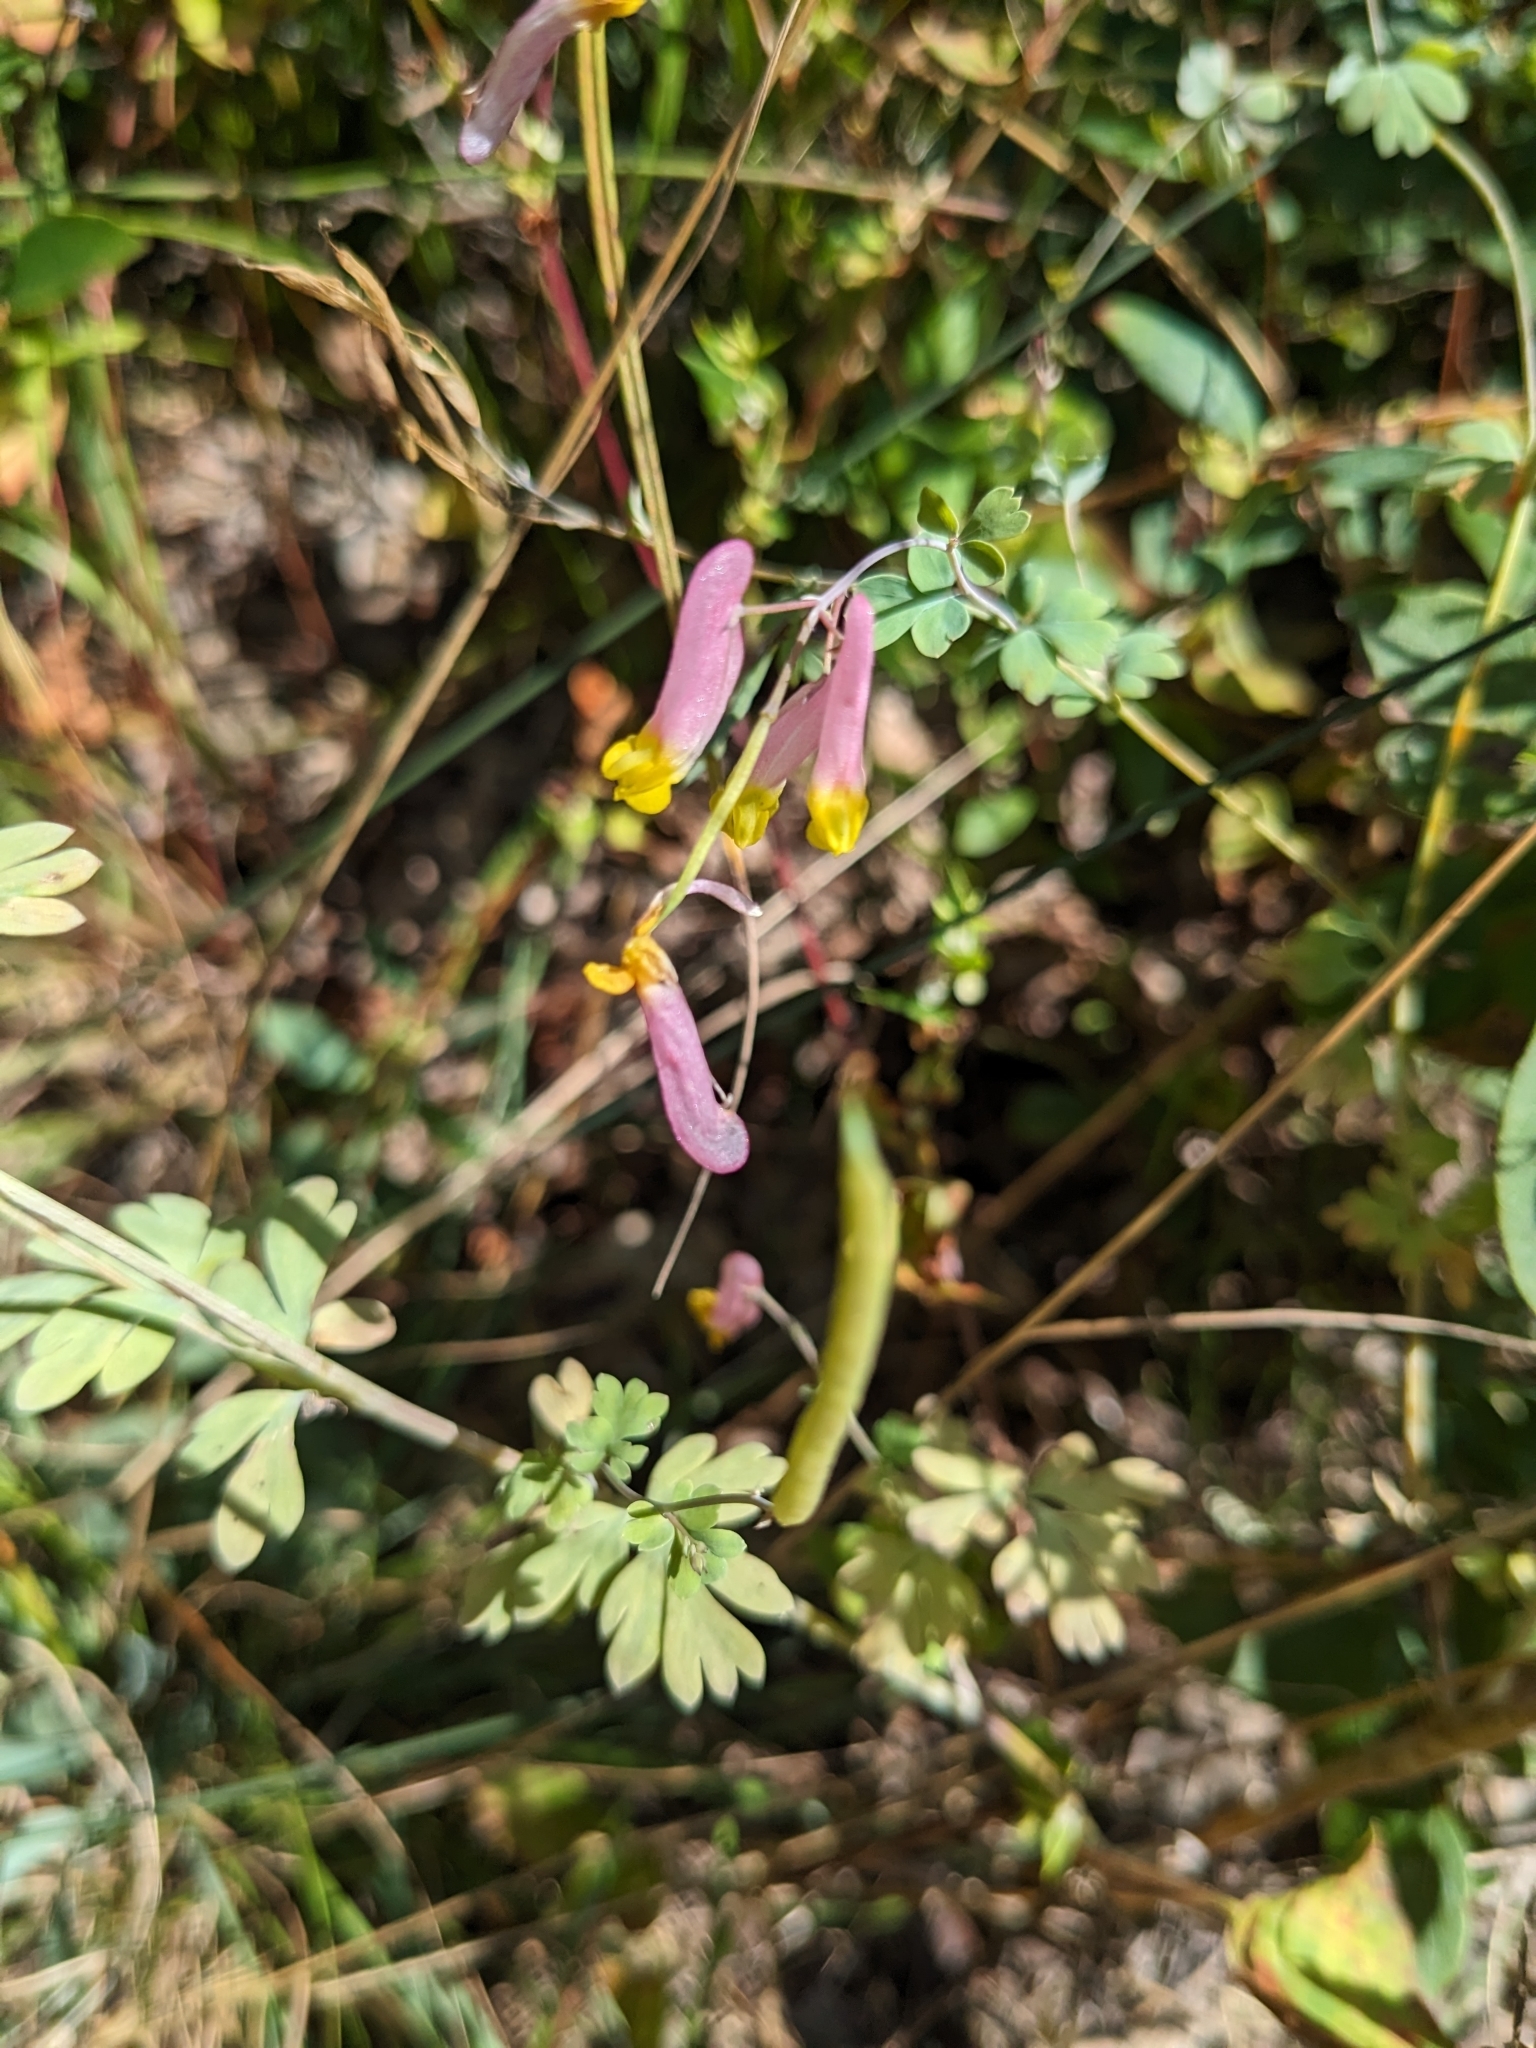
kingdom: Plantae
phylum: Tracheophyta
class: Magnoliopsida
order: Ranunculales
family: Papaveraceae
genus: Capnoides
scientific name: Capnoides sempervirens
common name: Rock harlequin
